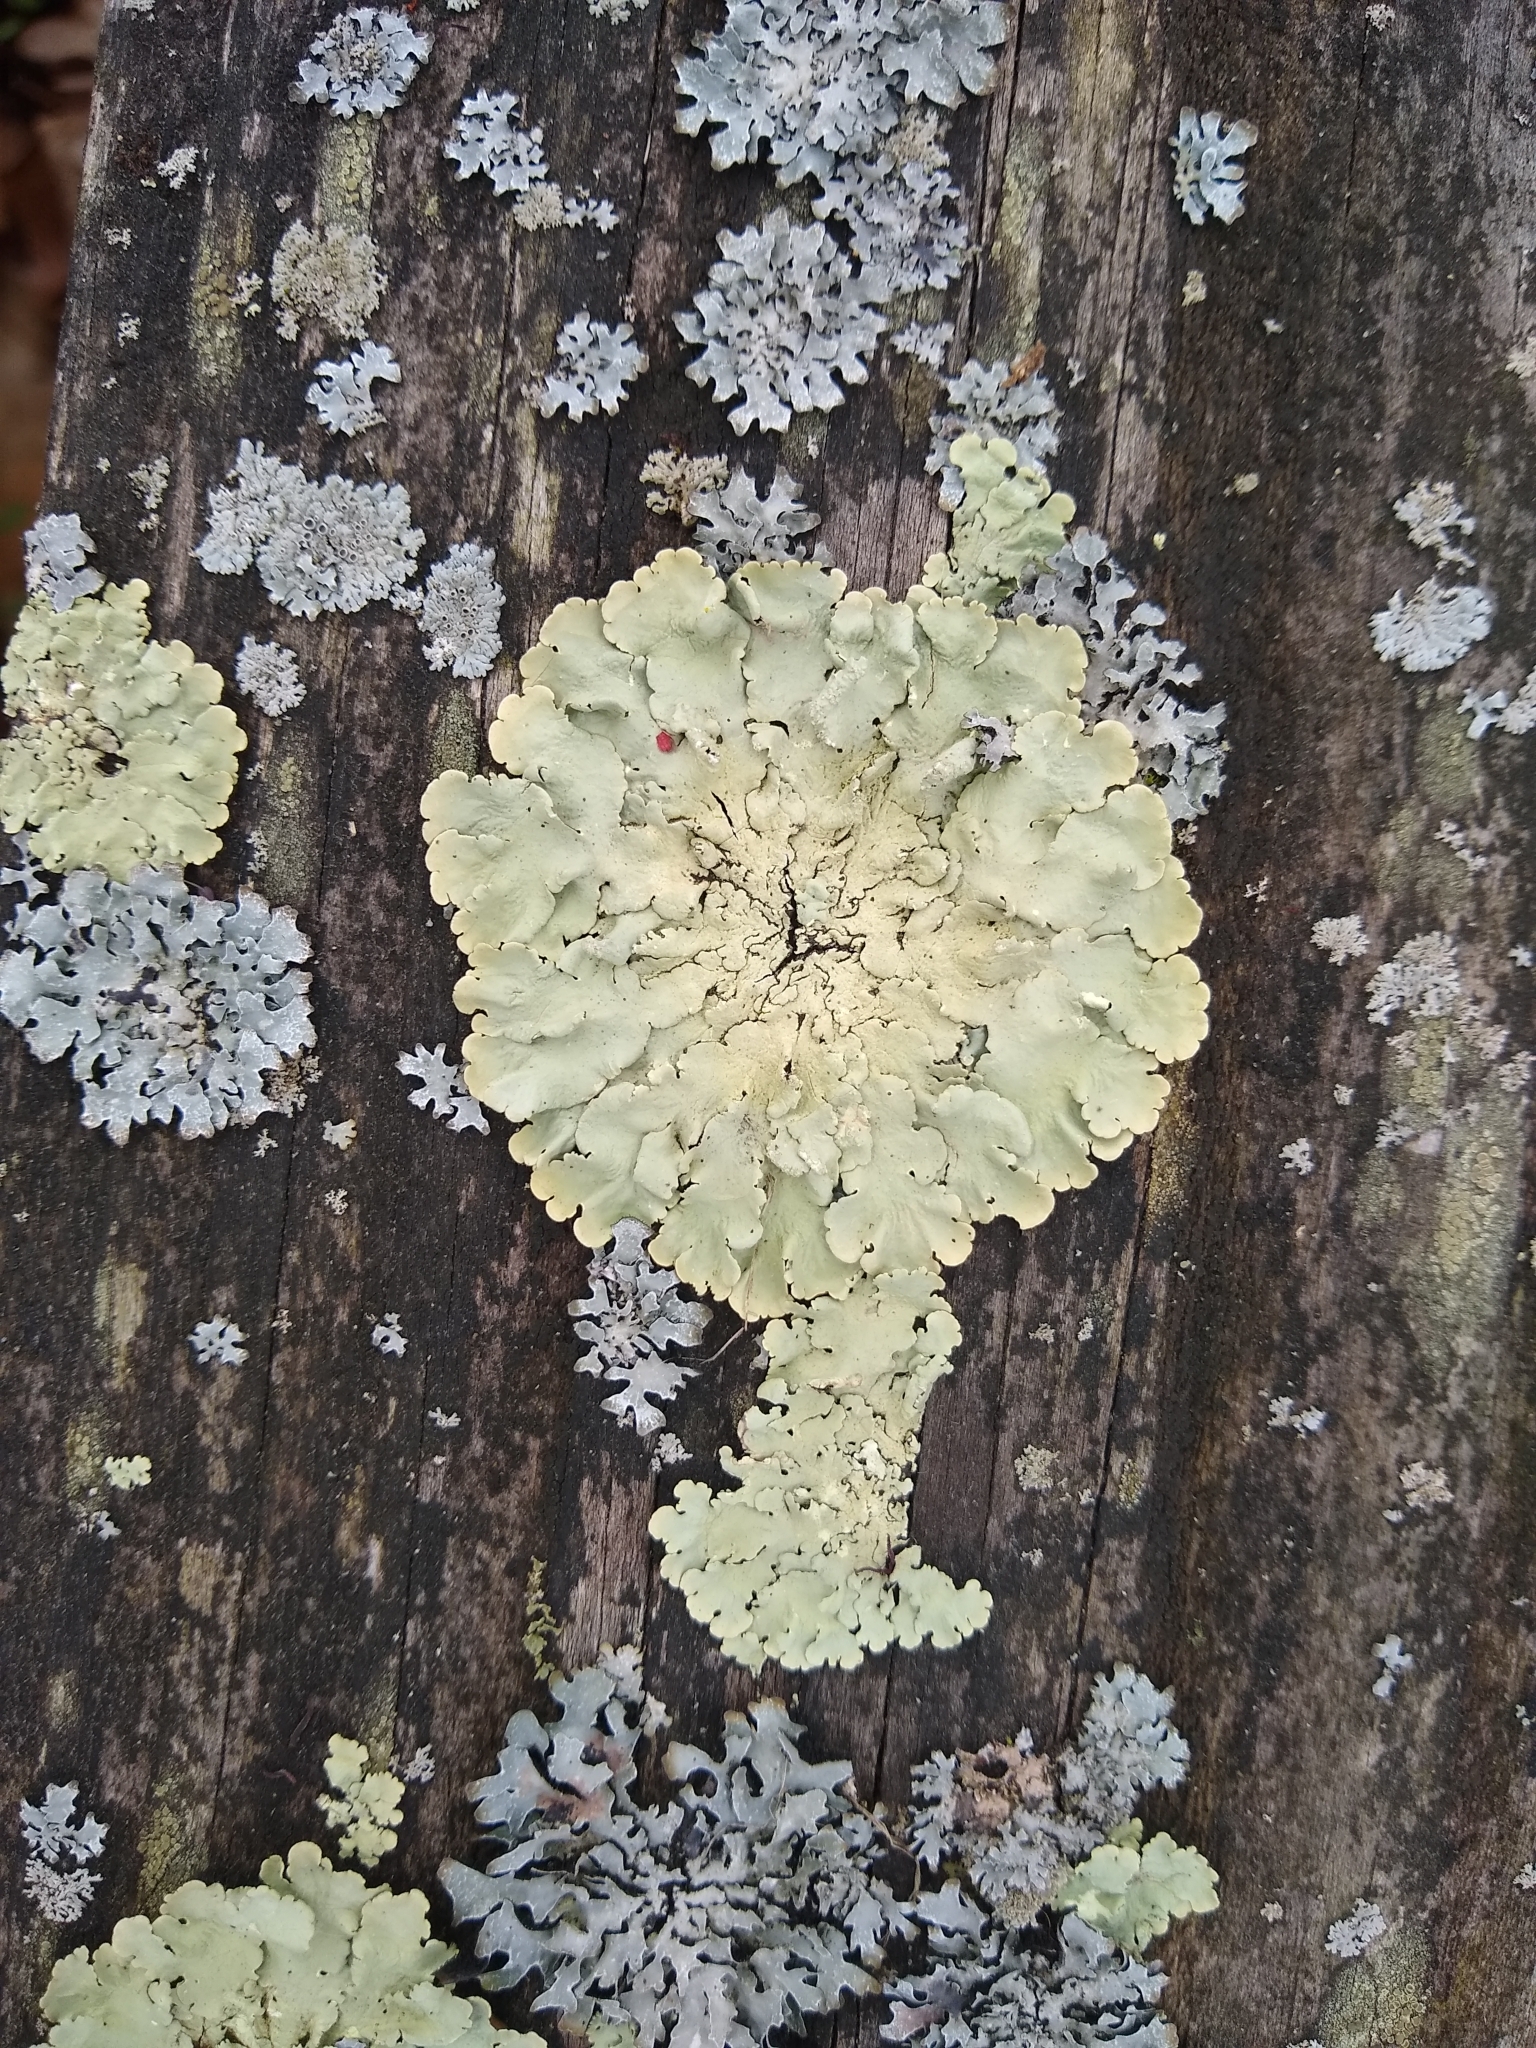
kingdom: Fungi
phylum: Ascomycota
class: Lecanoromycetes
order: Lecanorales
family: Parmeliaceae
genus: Flavoparmelia
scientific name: Flavoparmelia caperata
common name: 40-mile per hour lichen
